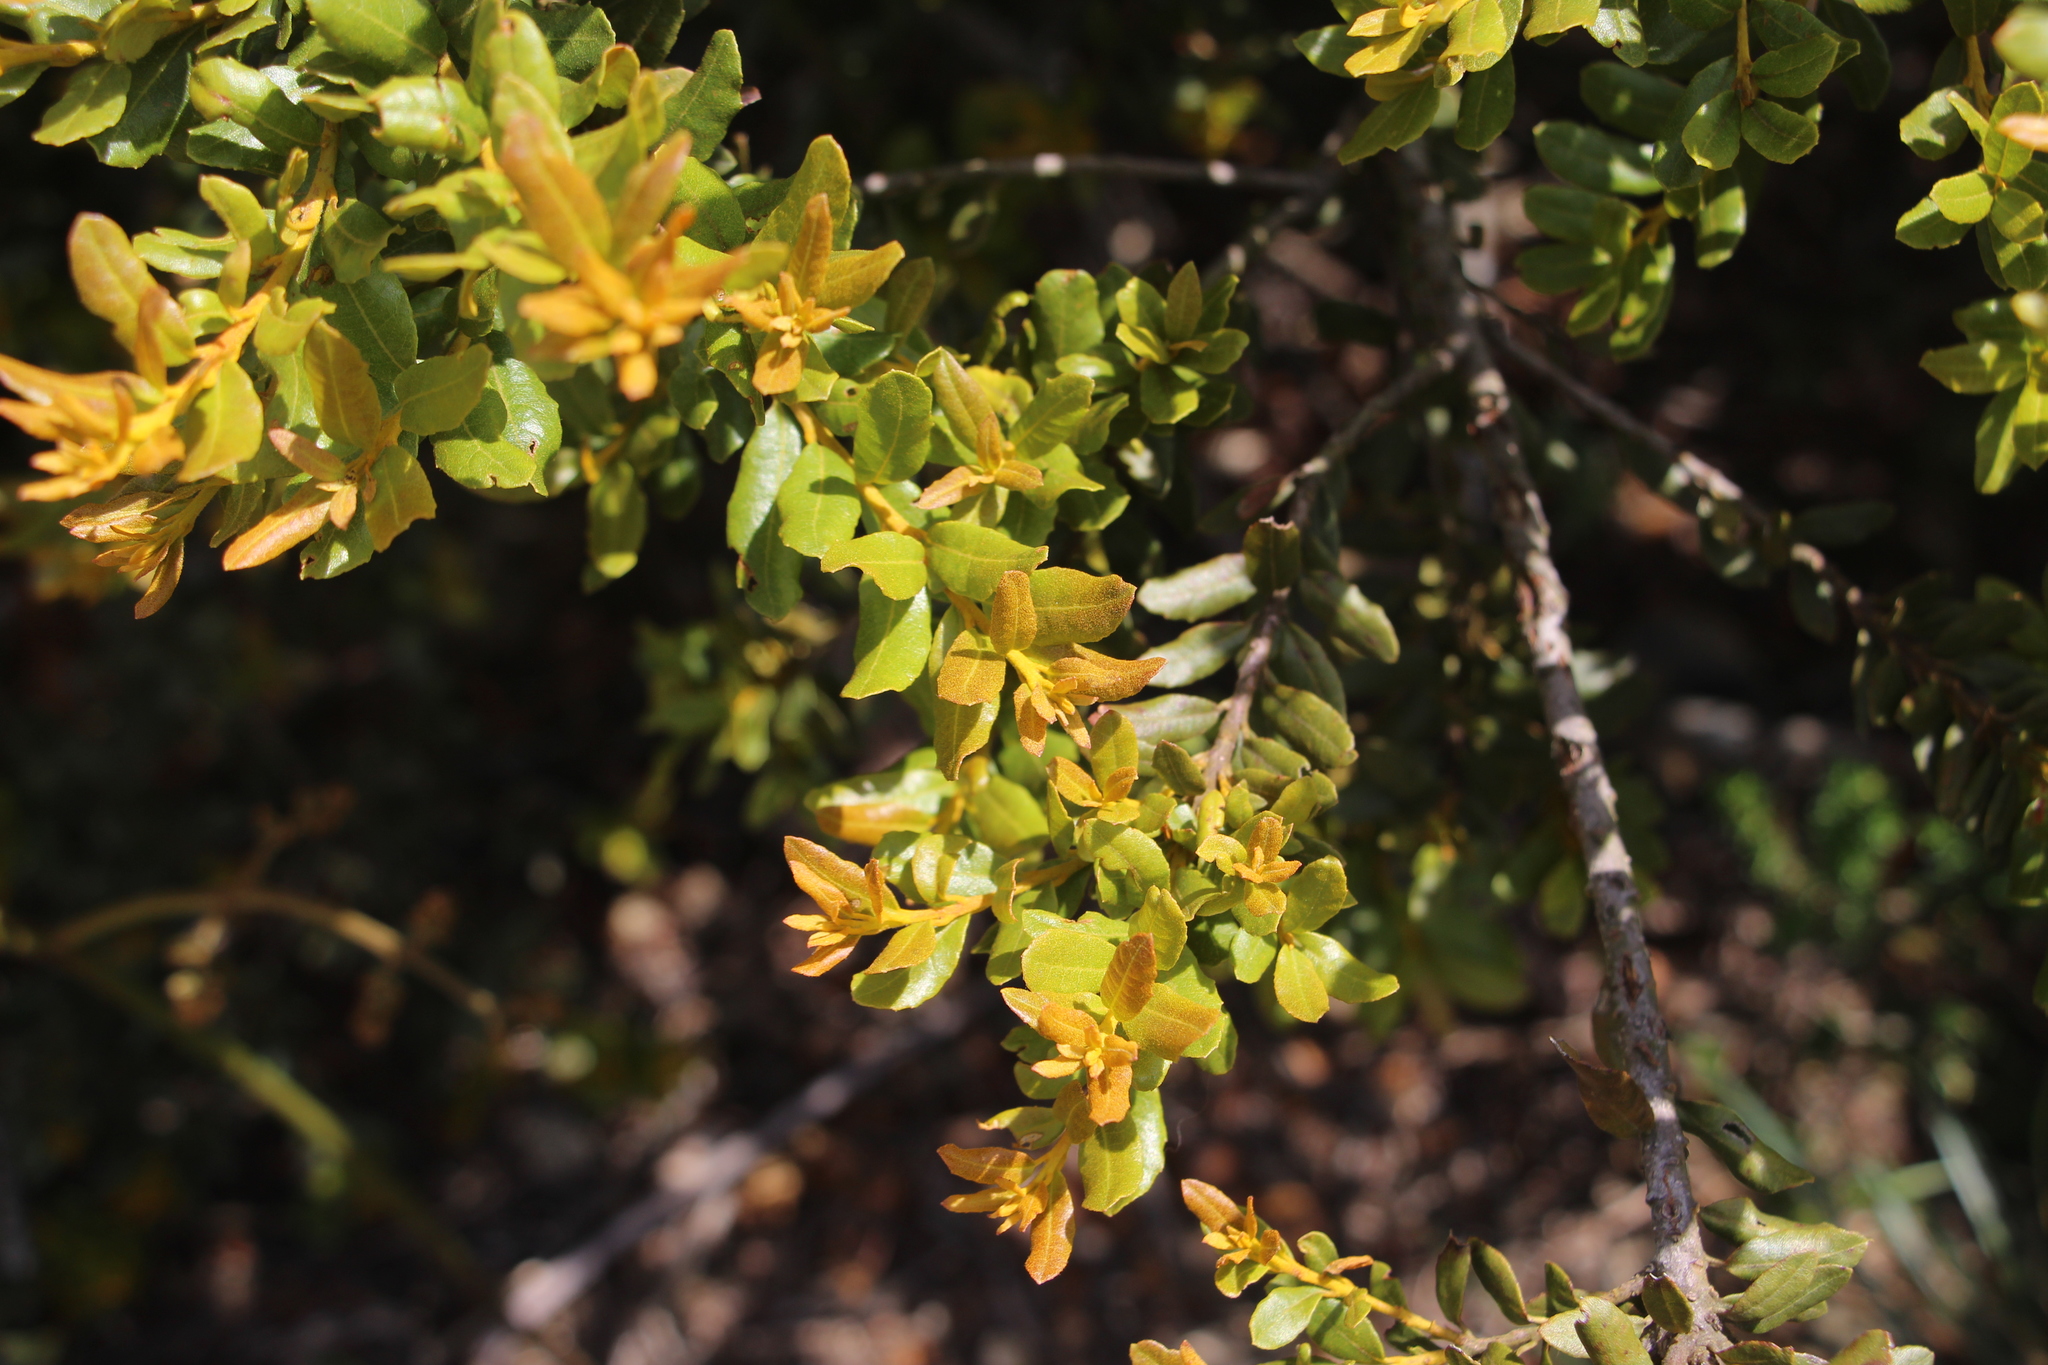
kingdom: Plantae
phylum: Tracheophyta
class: Magnoliopsida
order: Fagales
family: Myricaceae
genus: Morella
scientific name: Morella parvifolia
